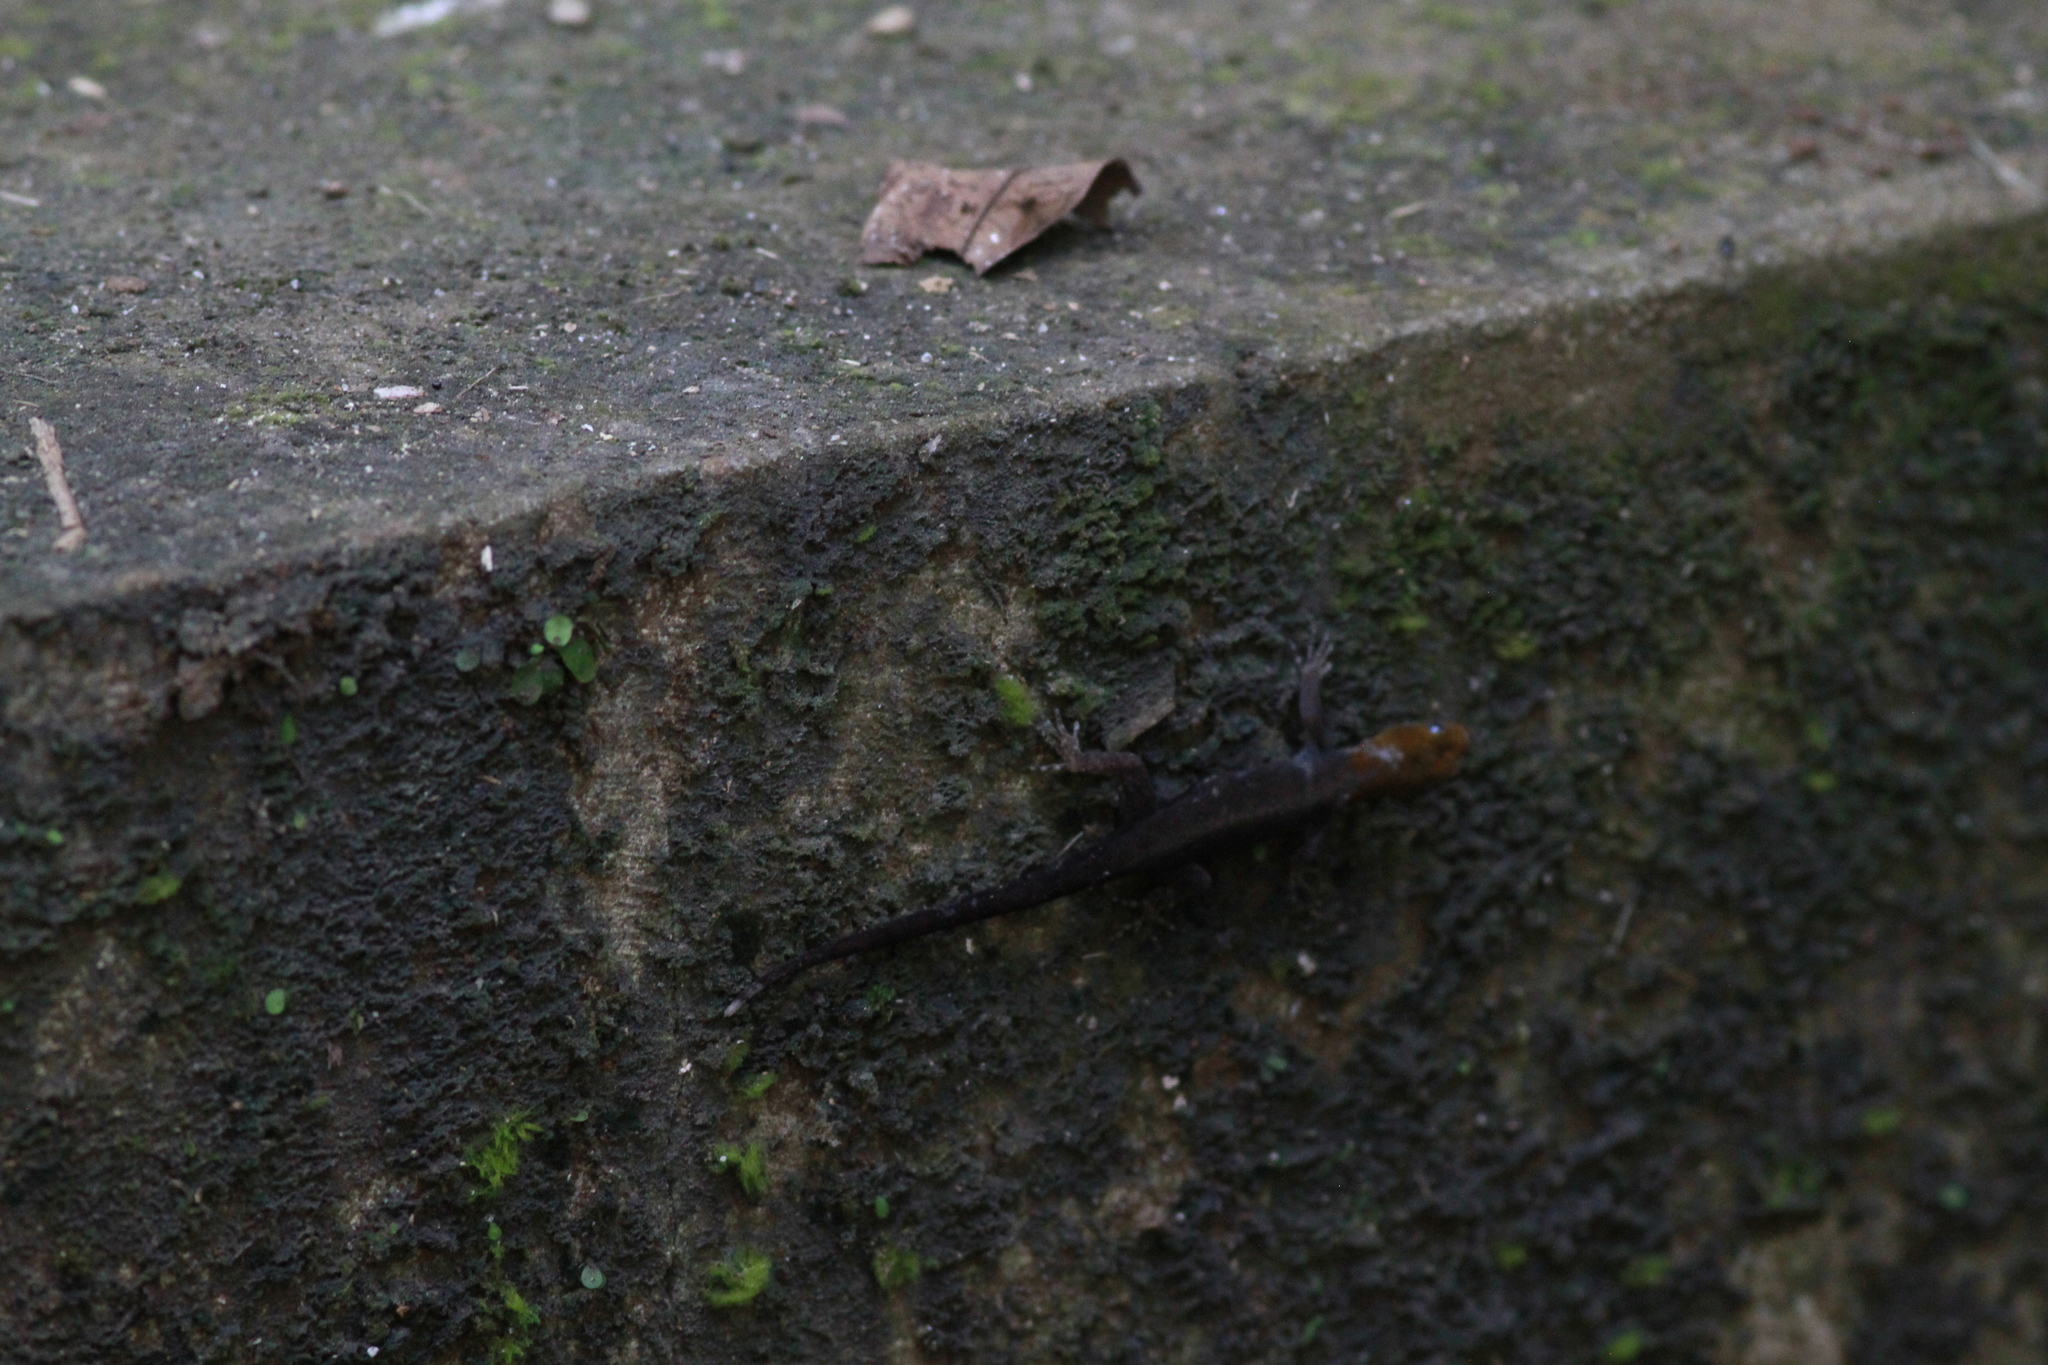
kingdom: Animalia
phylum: Chordata
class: Squamata
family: Sphaerodactylidae
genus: Gonatodes
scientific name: Gonatodes albogularis
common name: Yellow-headed gecko
